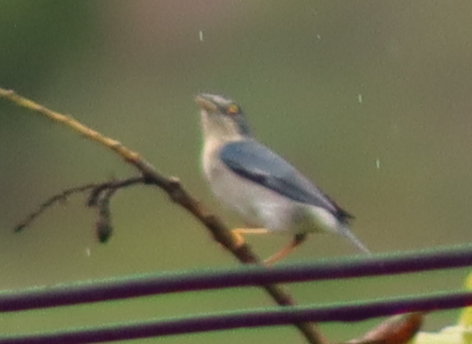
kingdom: Animalia
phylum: Chordata
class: Aves
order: Passeriformes
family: Thraupidae
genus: Nemosia
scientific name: Nemosia pileata
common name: Hooded tanager
